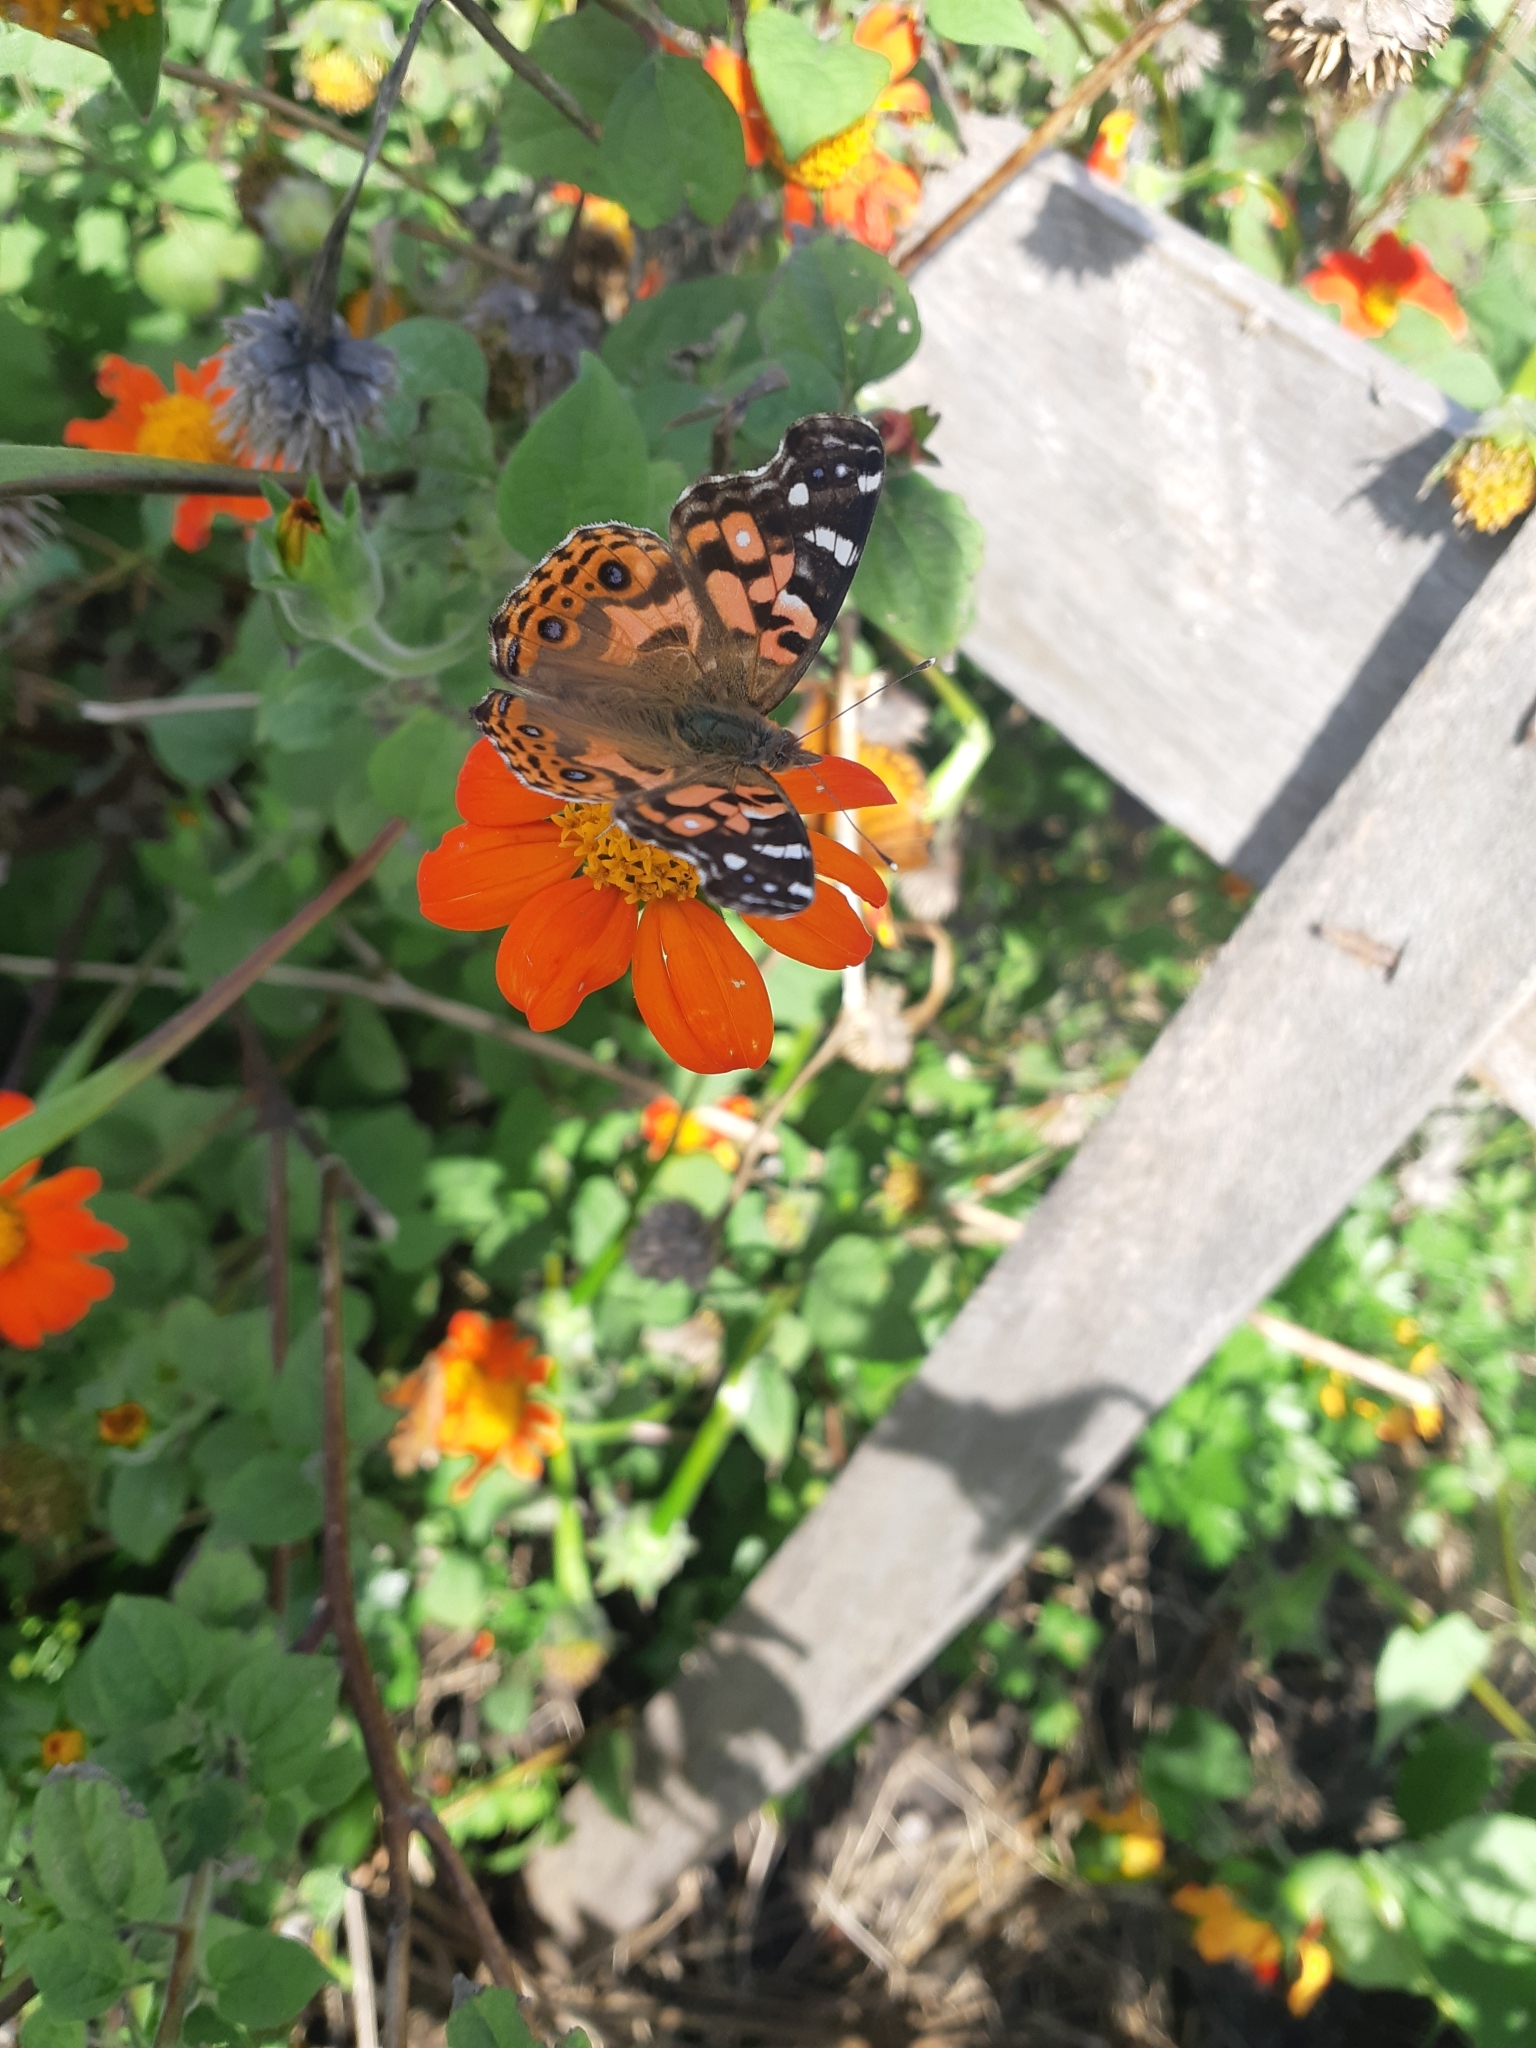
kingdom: Animalia
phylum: Arthropoda
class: Insecta
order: Lepidoptera
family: Nymphalidae
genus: Vanessa
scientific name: Vanessa braziliensis
